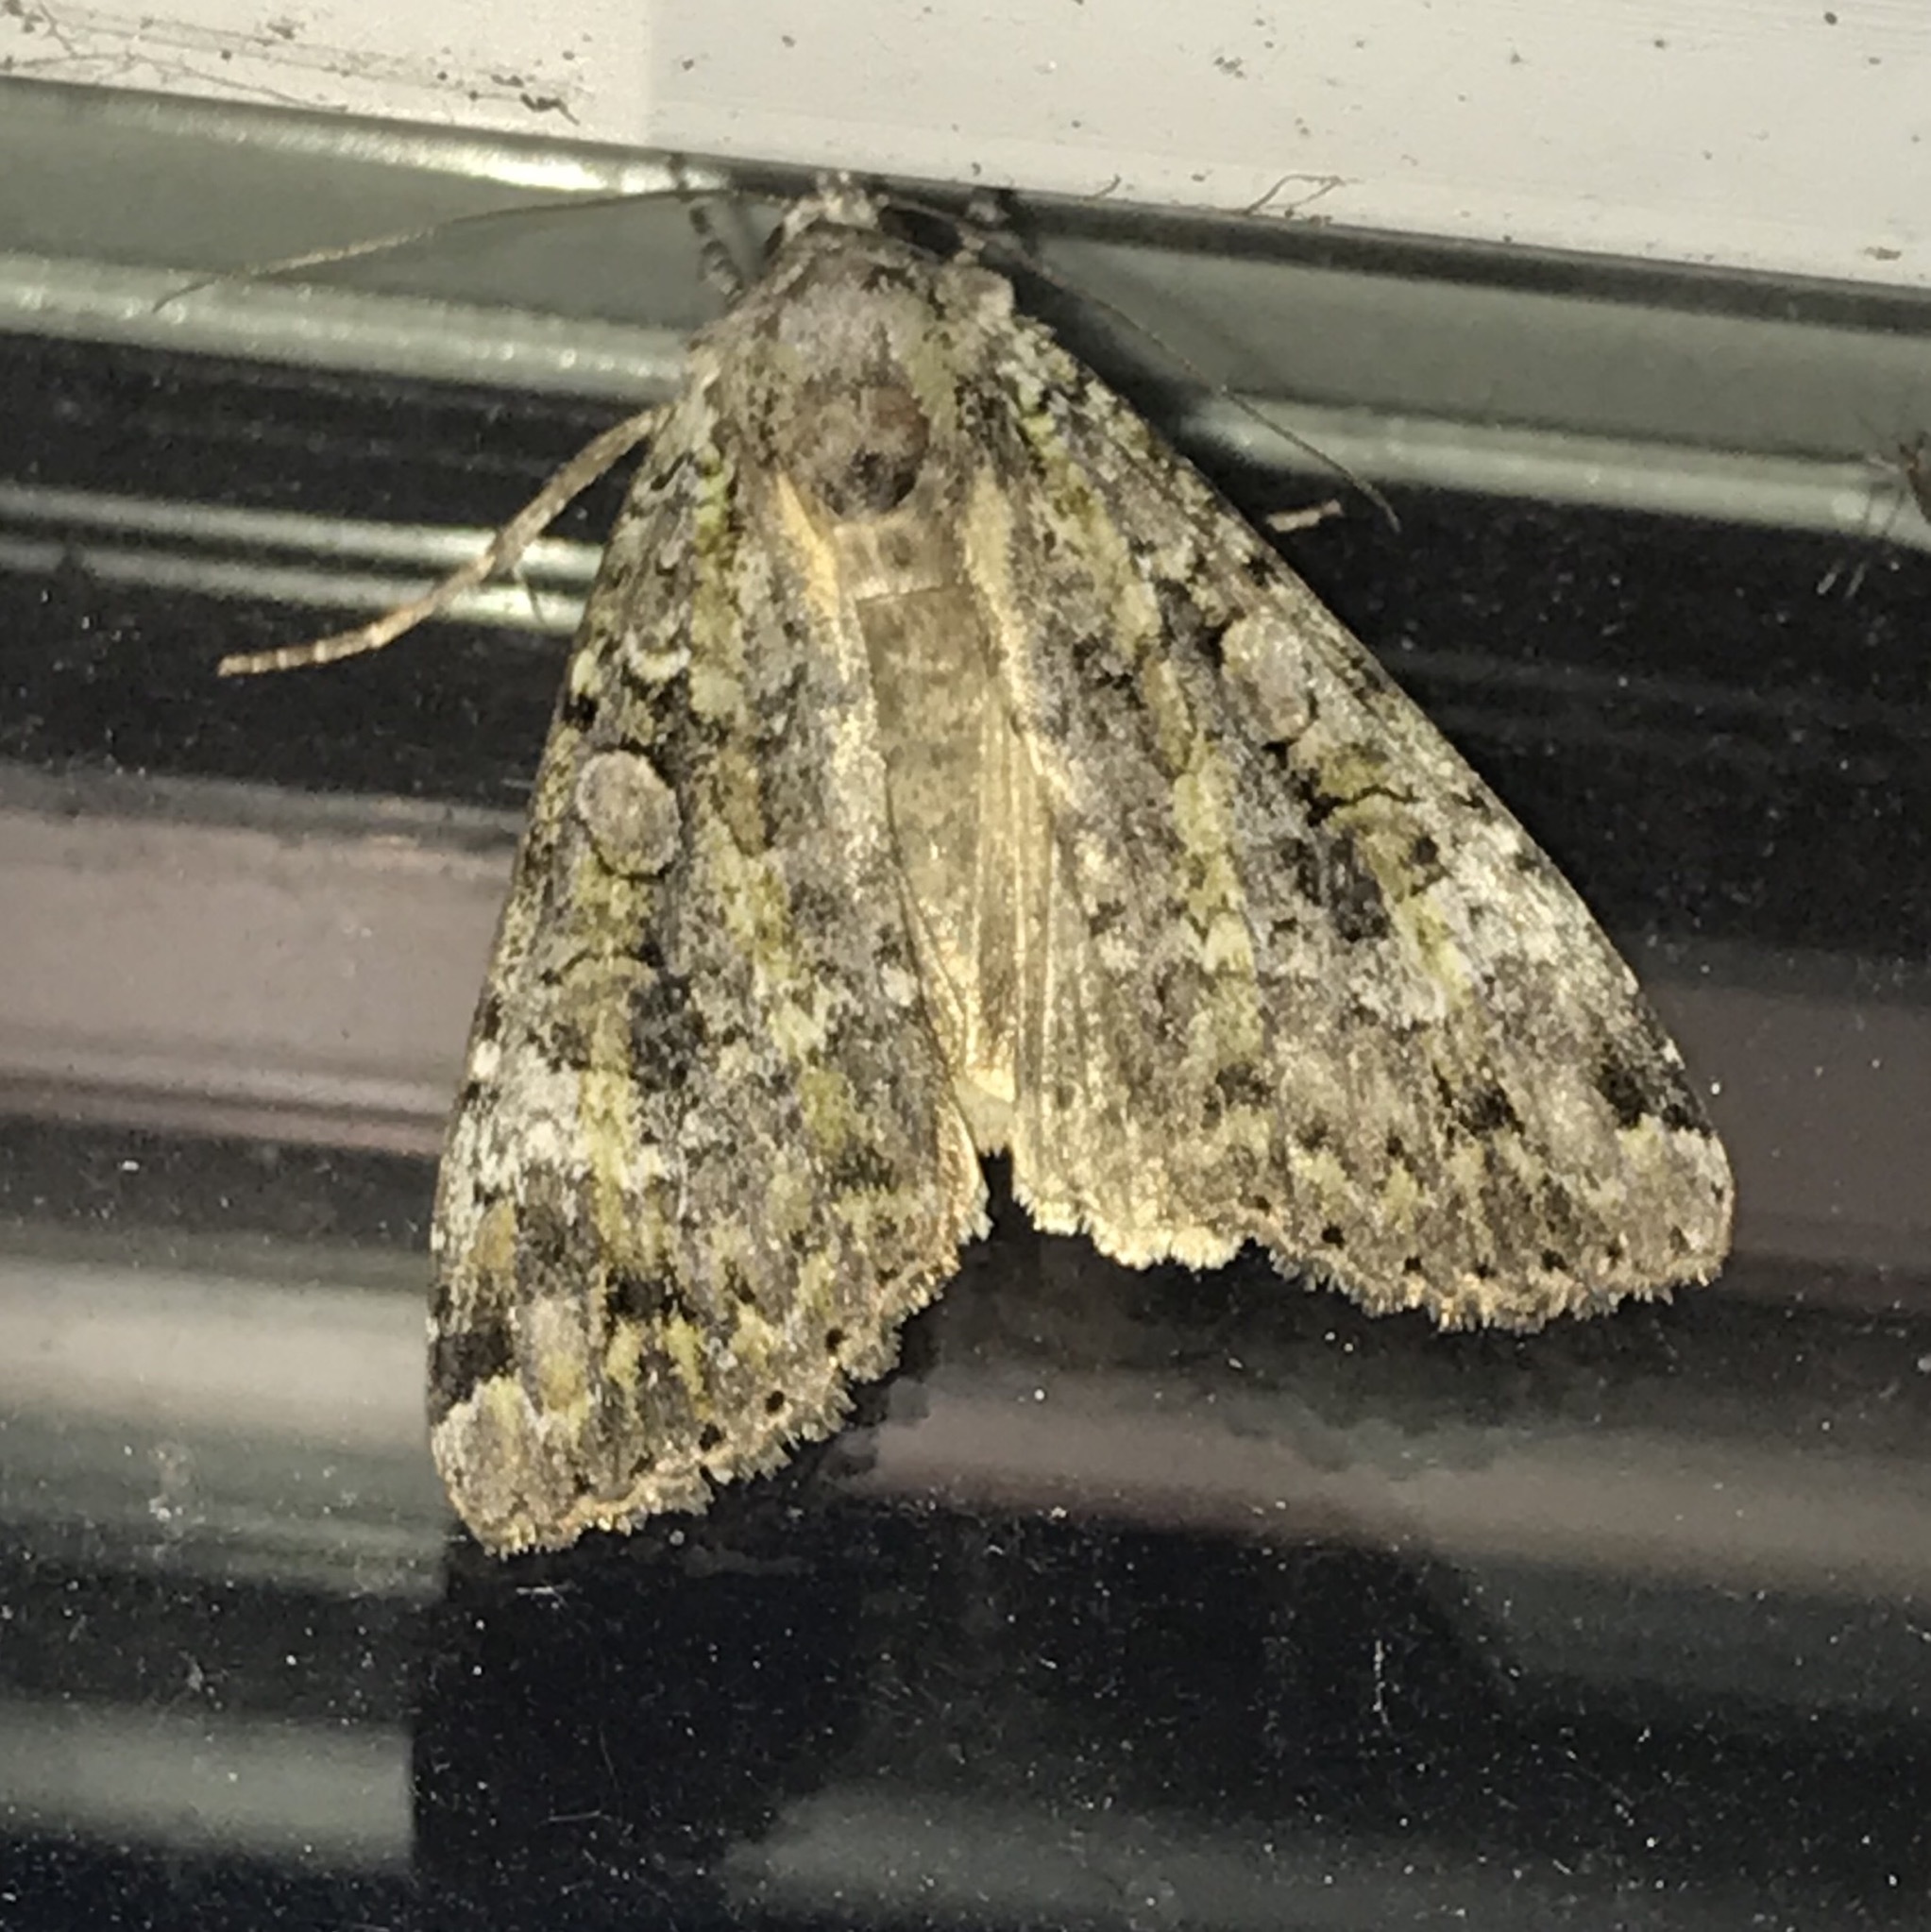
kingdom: Animalia
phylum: Arthropoda
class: Insecta
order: Lepidoptera
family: Noctuidae
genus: Anaplectoides
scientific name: Anaplectoides prasina
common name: Green arches
